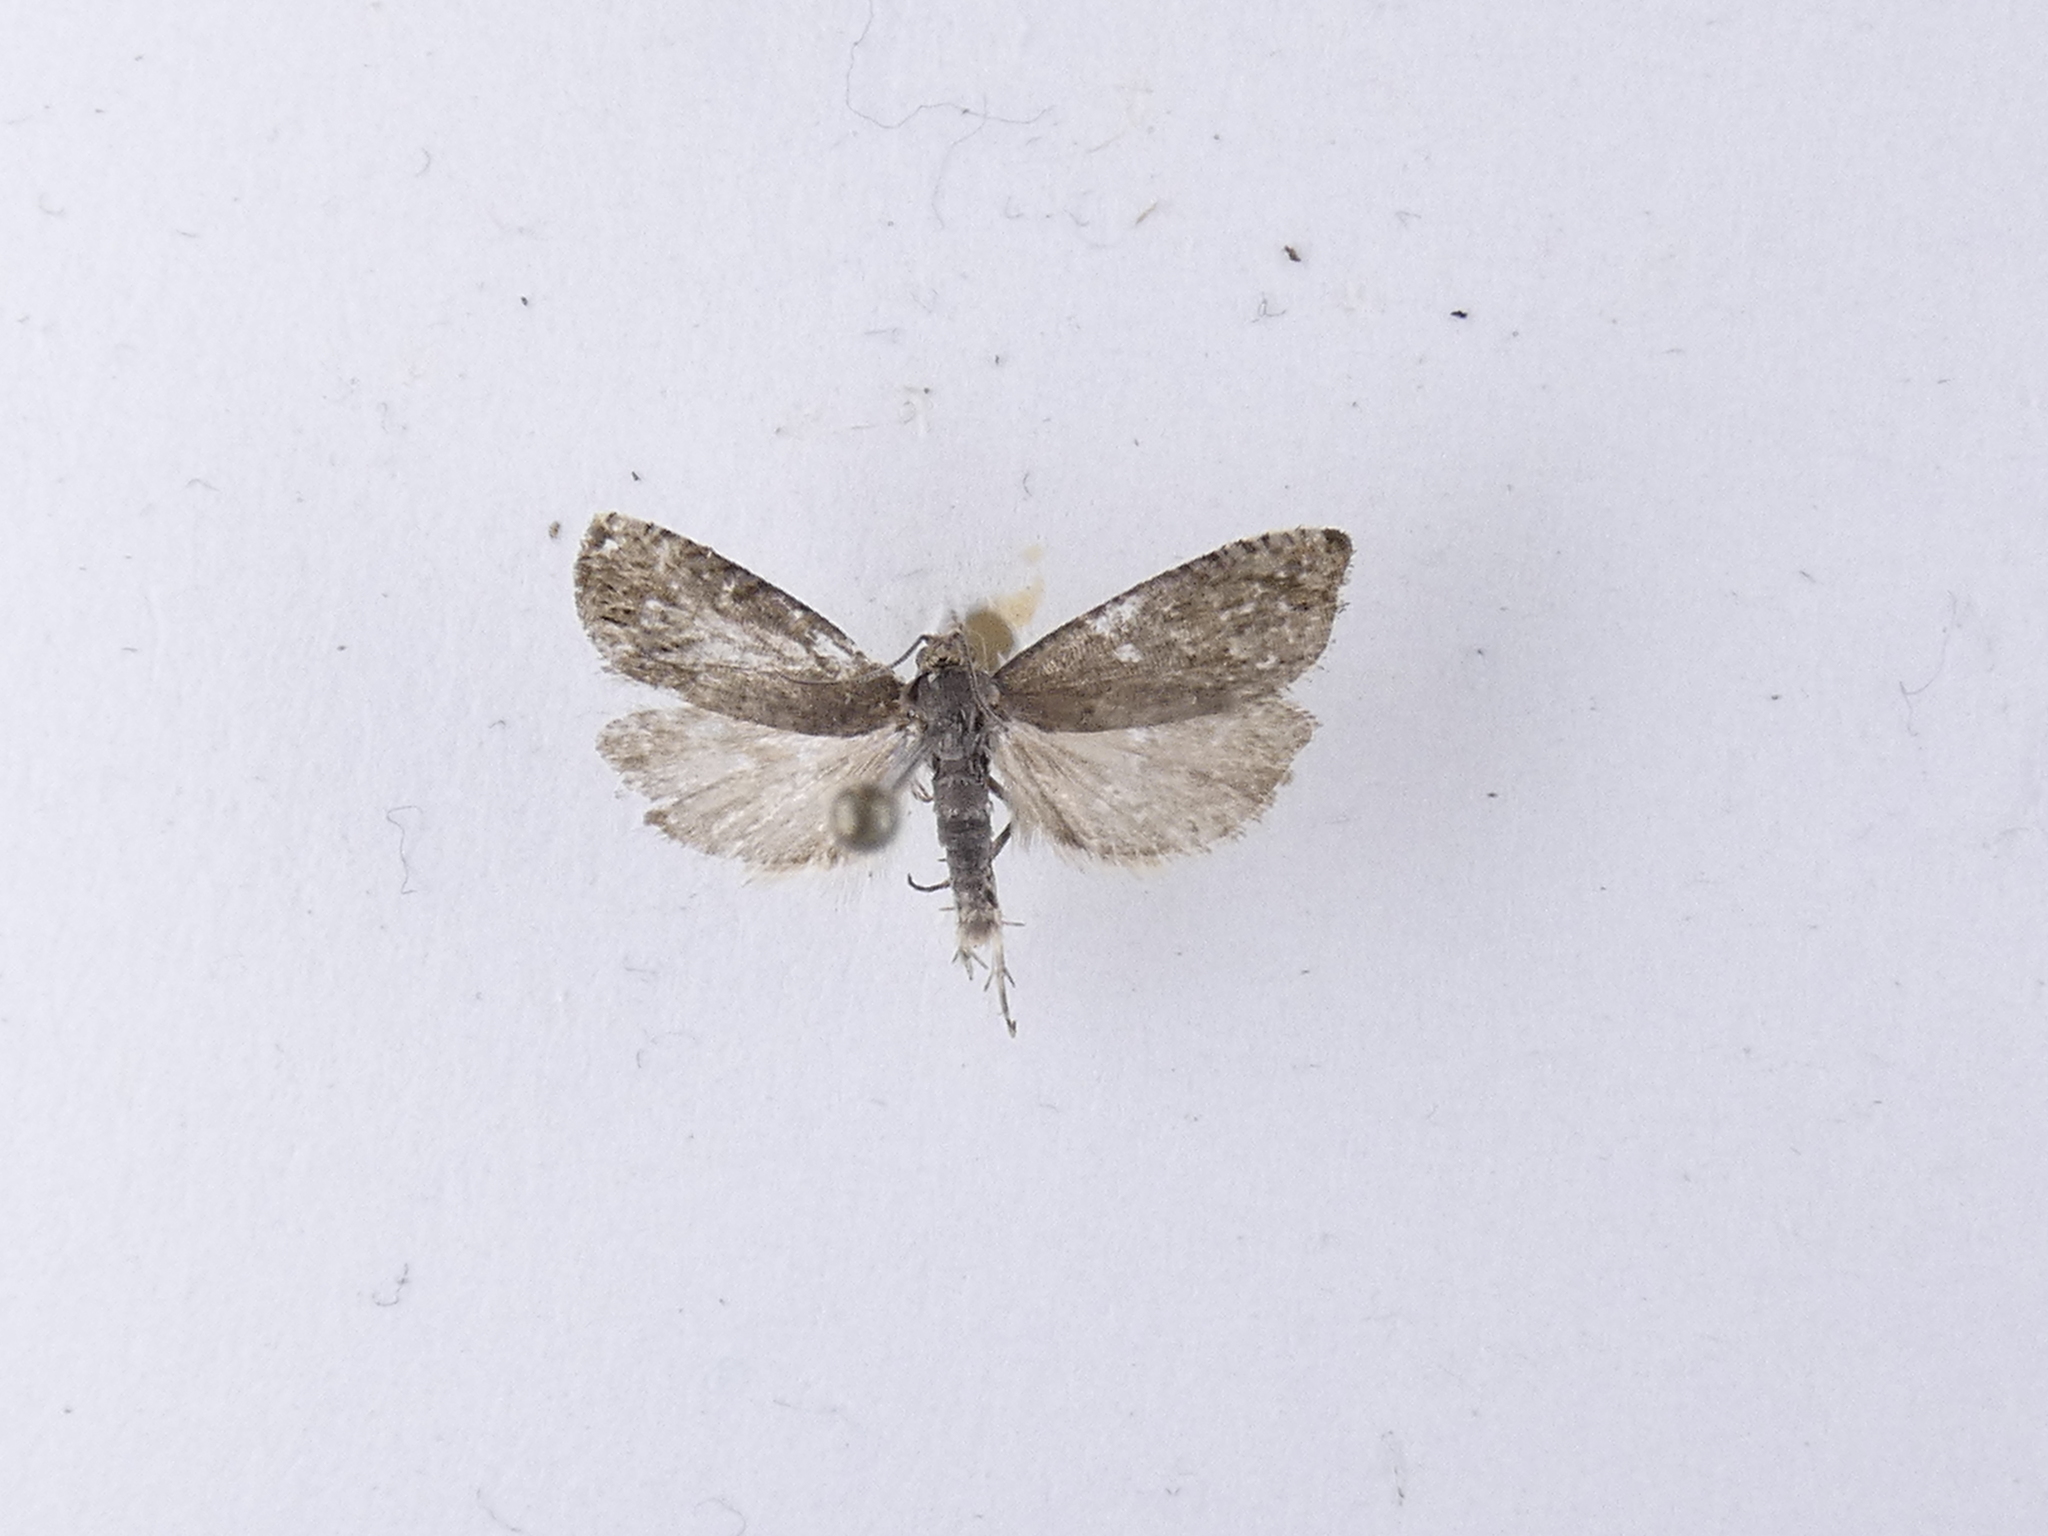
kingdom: Animalia
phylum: Arthropoda
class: Insecta
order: Lepidoptera
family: Tortricidae
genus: Cydia
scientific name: Cydia succedana
